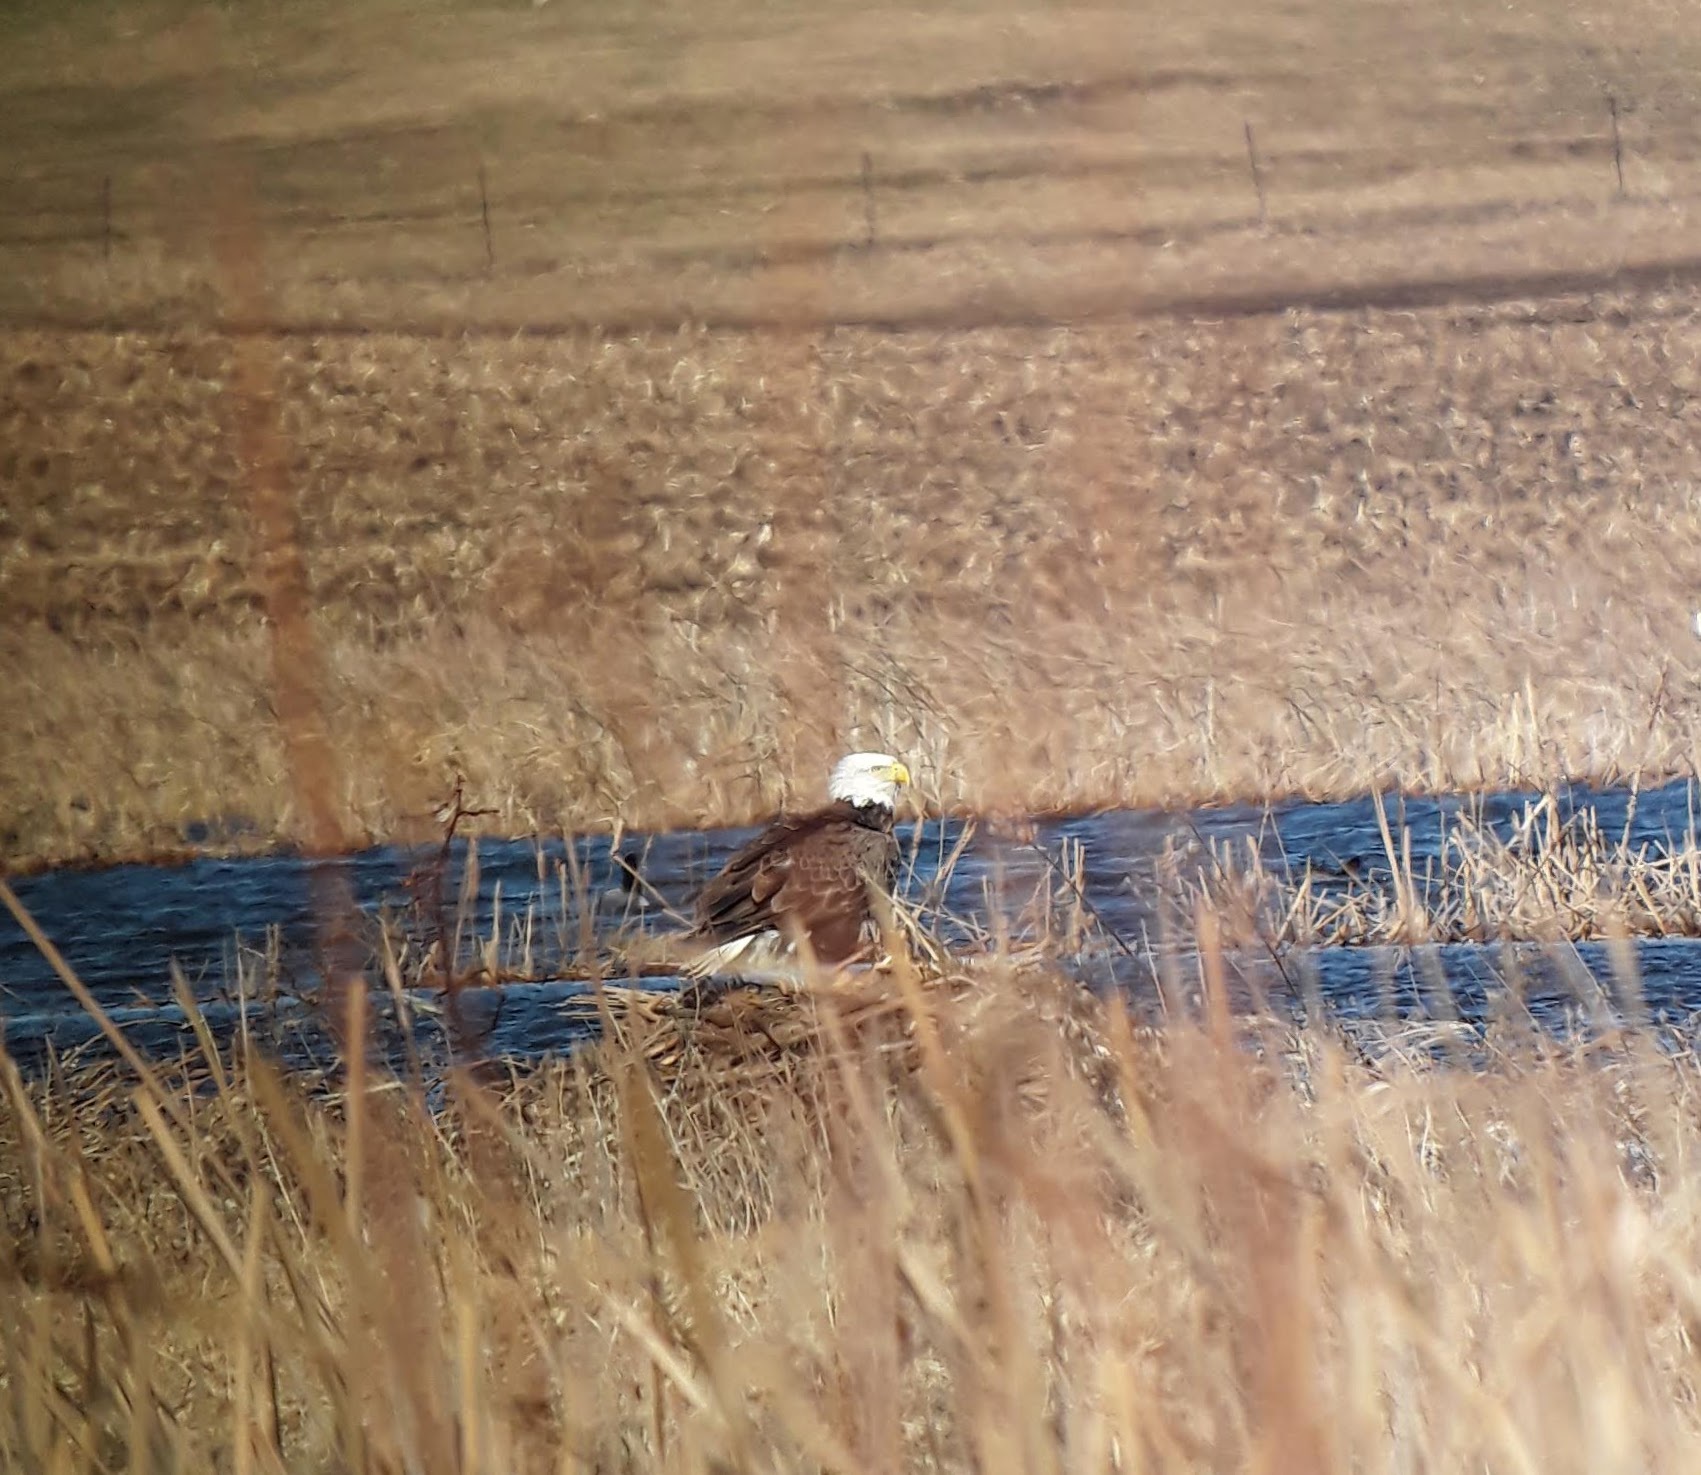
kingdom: Animalia
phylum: Chordata
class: Aves
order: Accipitriformes
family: Accipitridae
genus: Haliaeetus
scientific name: Haliaeetus leucocephalus
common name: Bald eagle
